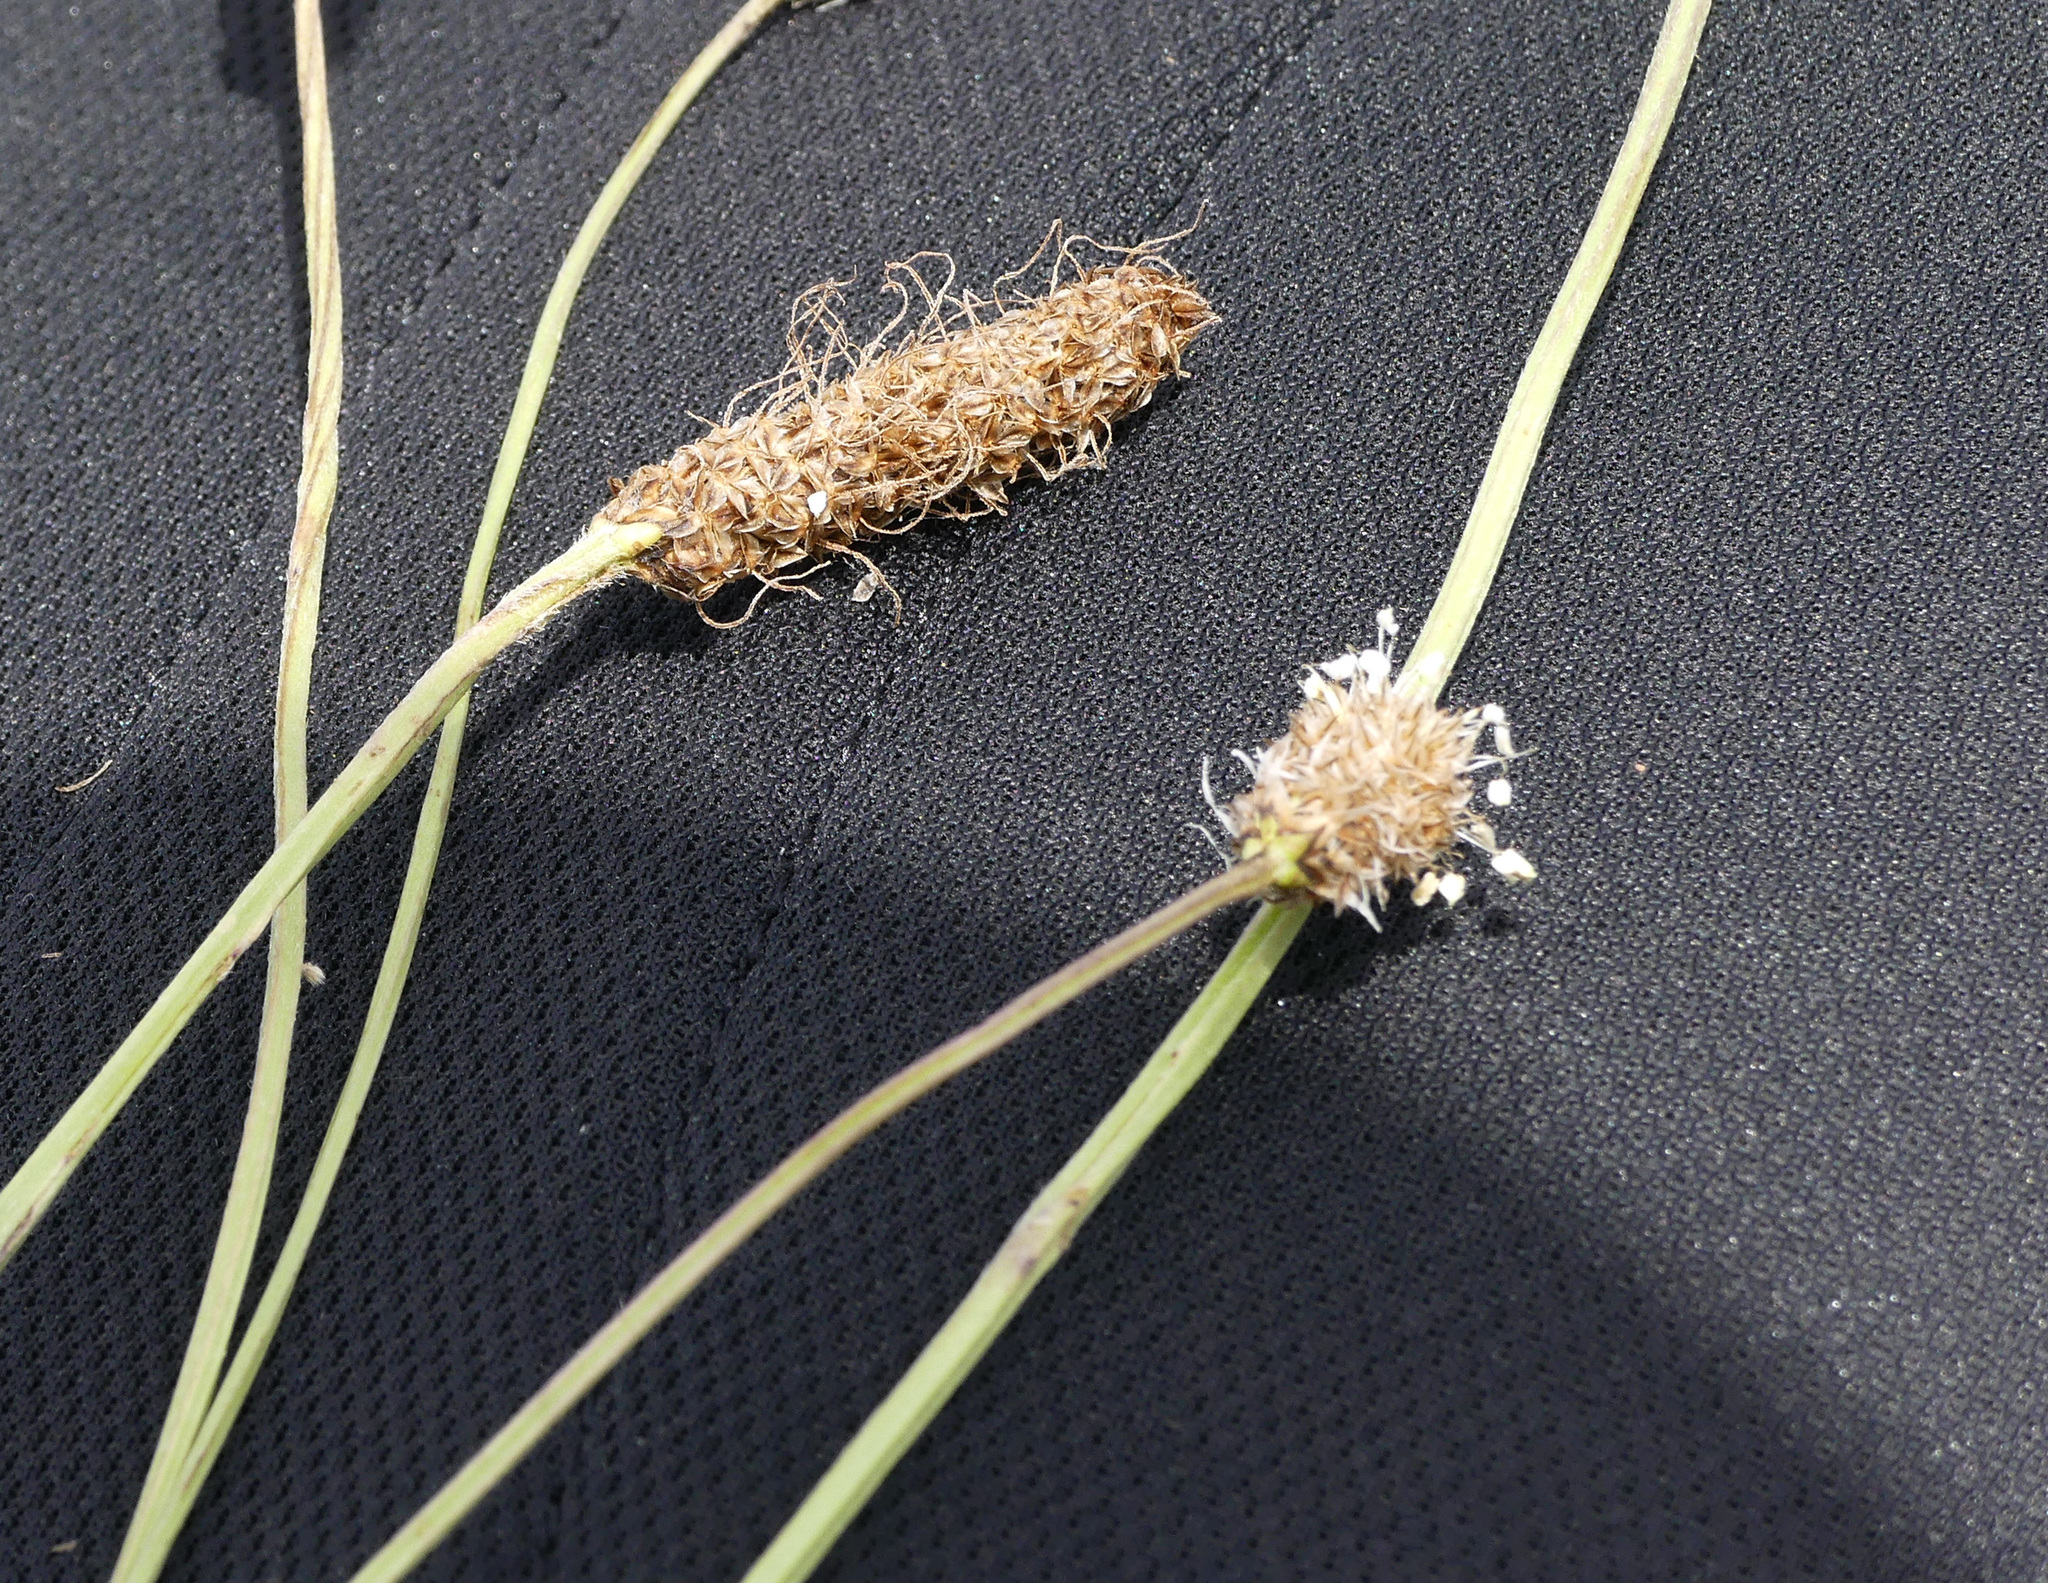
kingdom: Plantae
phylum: Tracheophyta
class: Magnoliopsida
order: Lamiales
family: Plantaginaceae
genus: Plantago
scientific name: Plantago lanceolata
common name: Ribwort plantain
